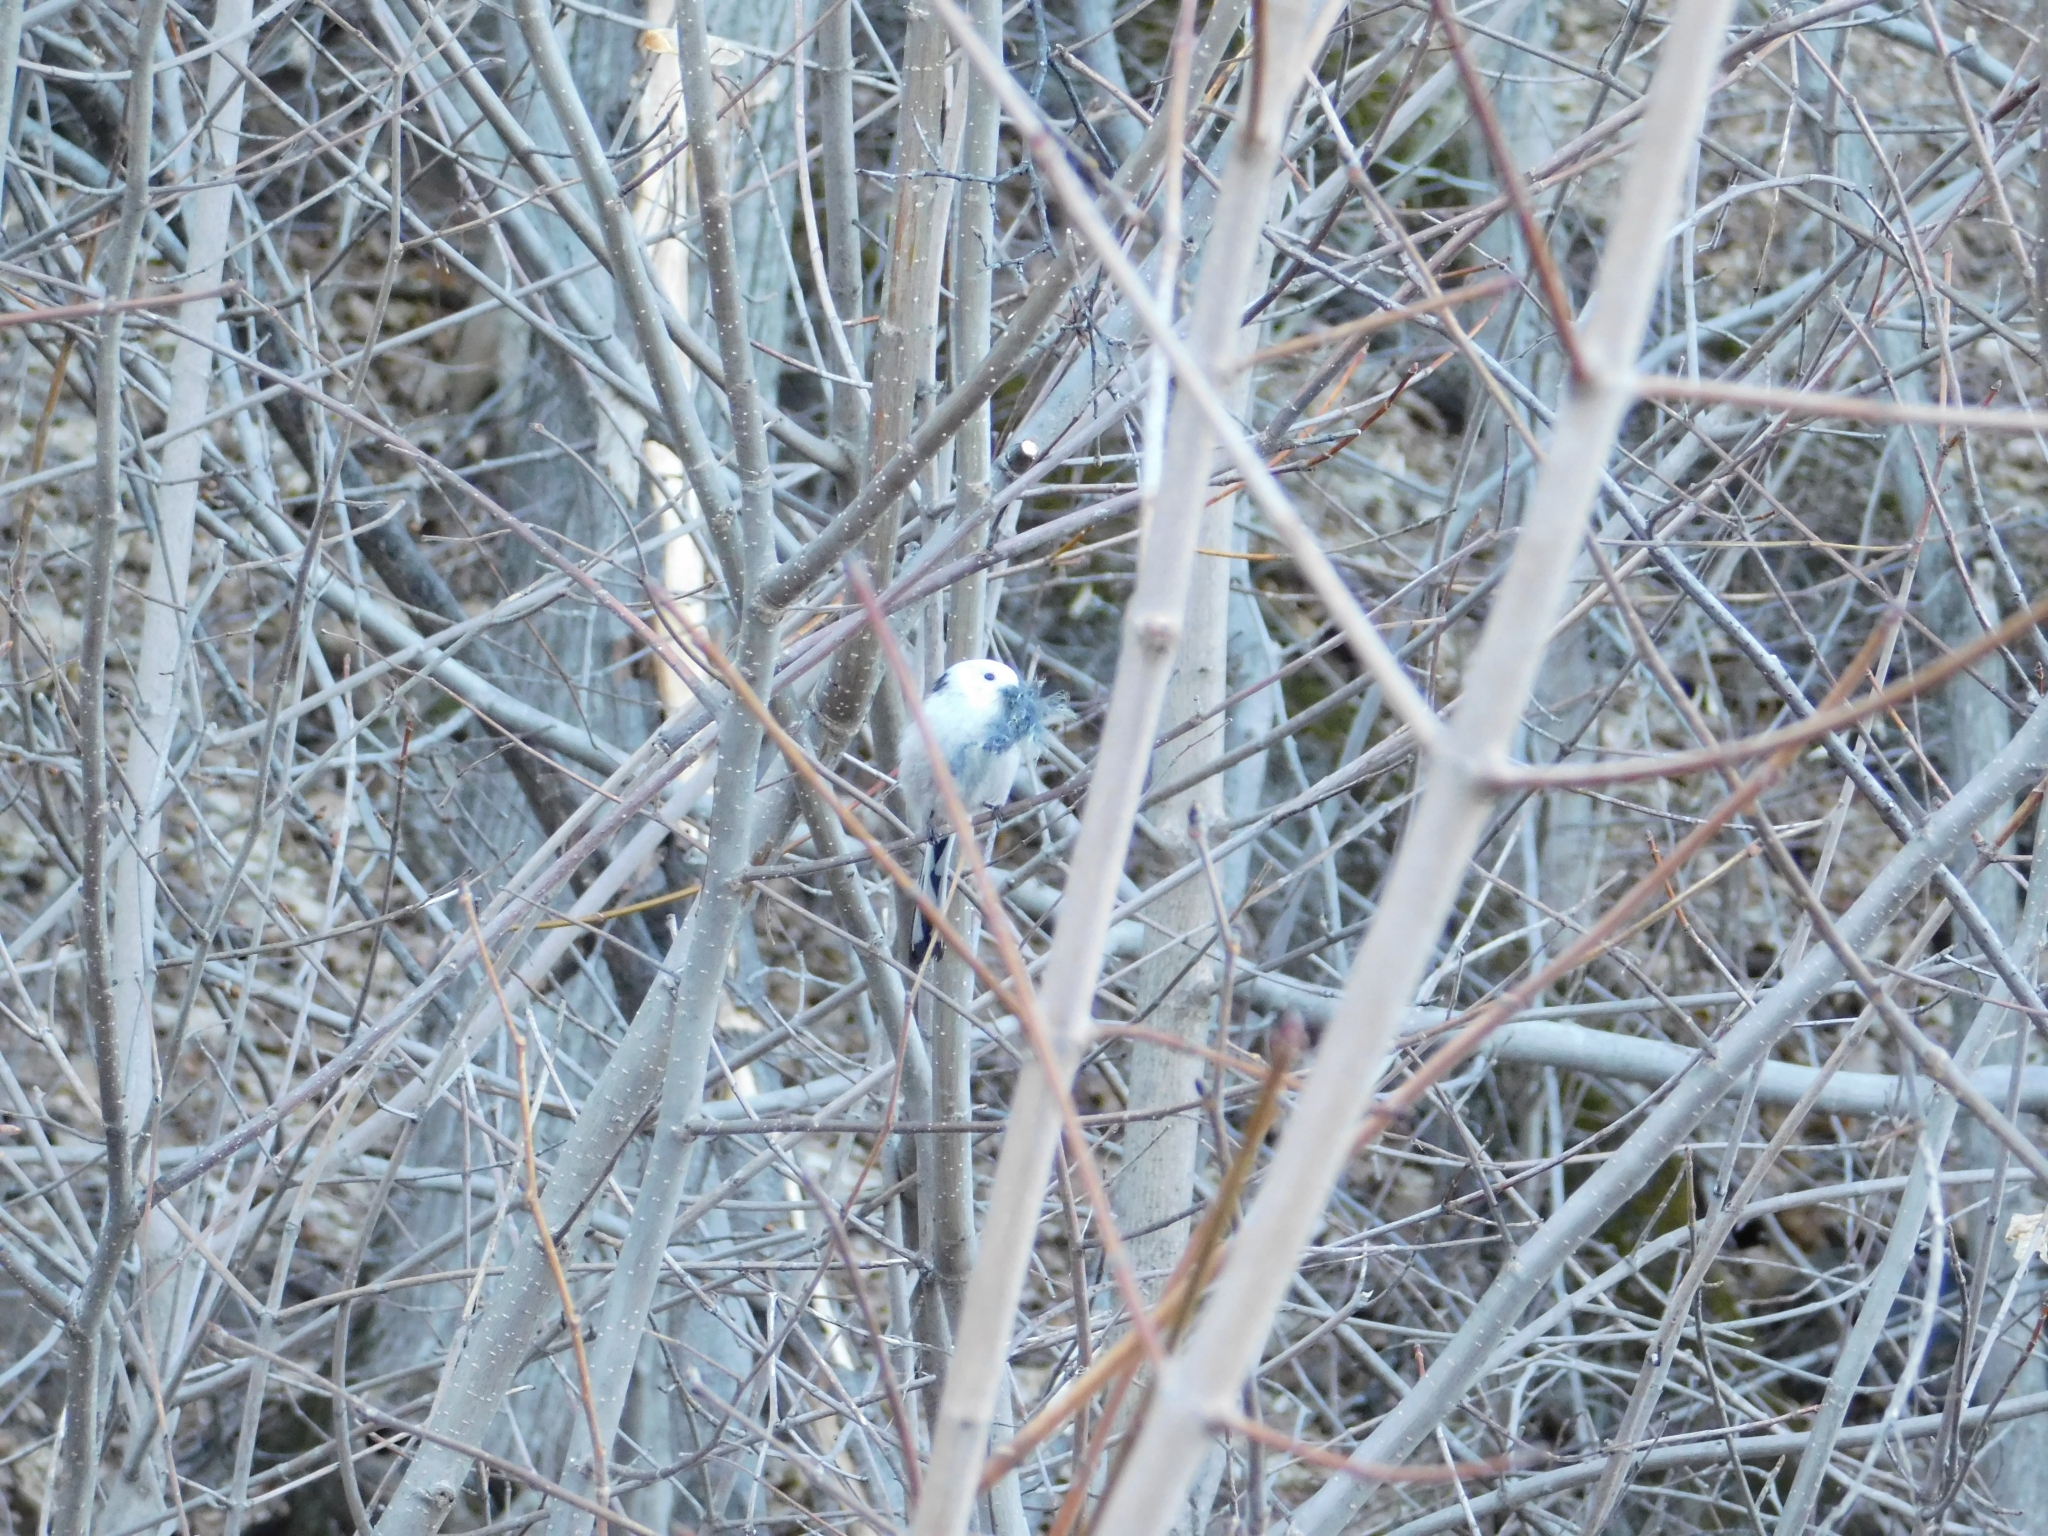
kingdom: Animalia
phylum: Chordata
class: Aves
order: Passeriformes
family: Aegithalidae
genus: Aegithalos
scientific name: Aegithalos caudatus
